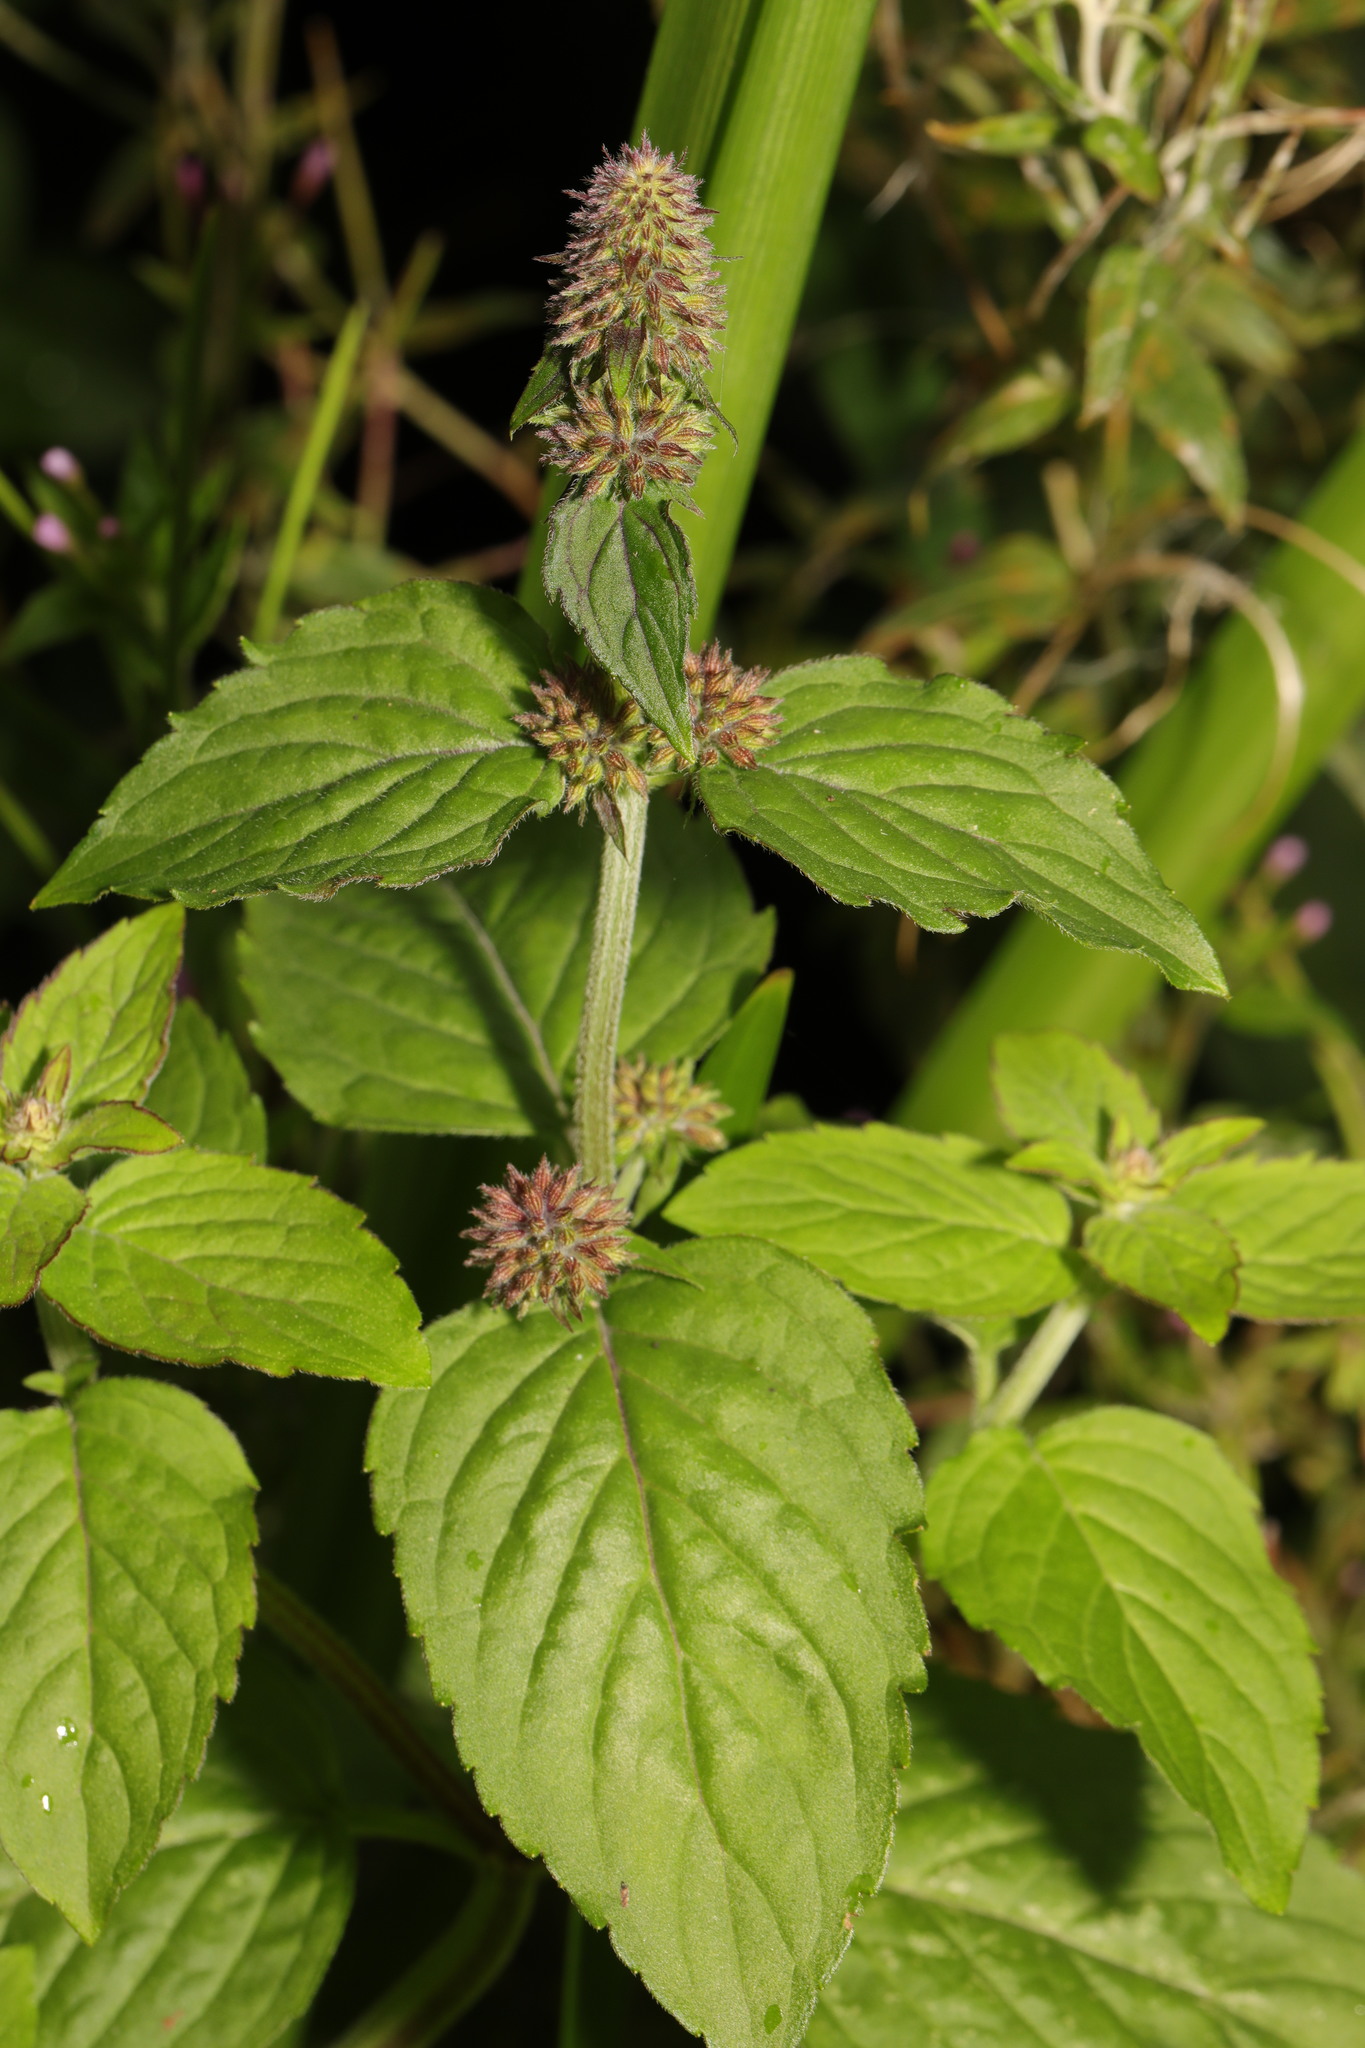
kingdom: Plantae
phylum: Tracheophyta
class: Magnoliopsida
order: Lamiales
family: Lamiaceae
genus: Mentha
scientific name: Mentha aquatica
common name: Water mint
